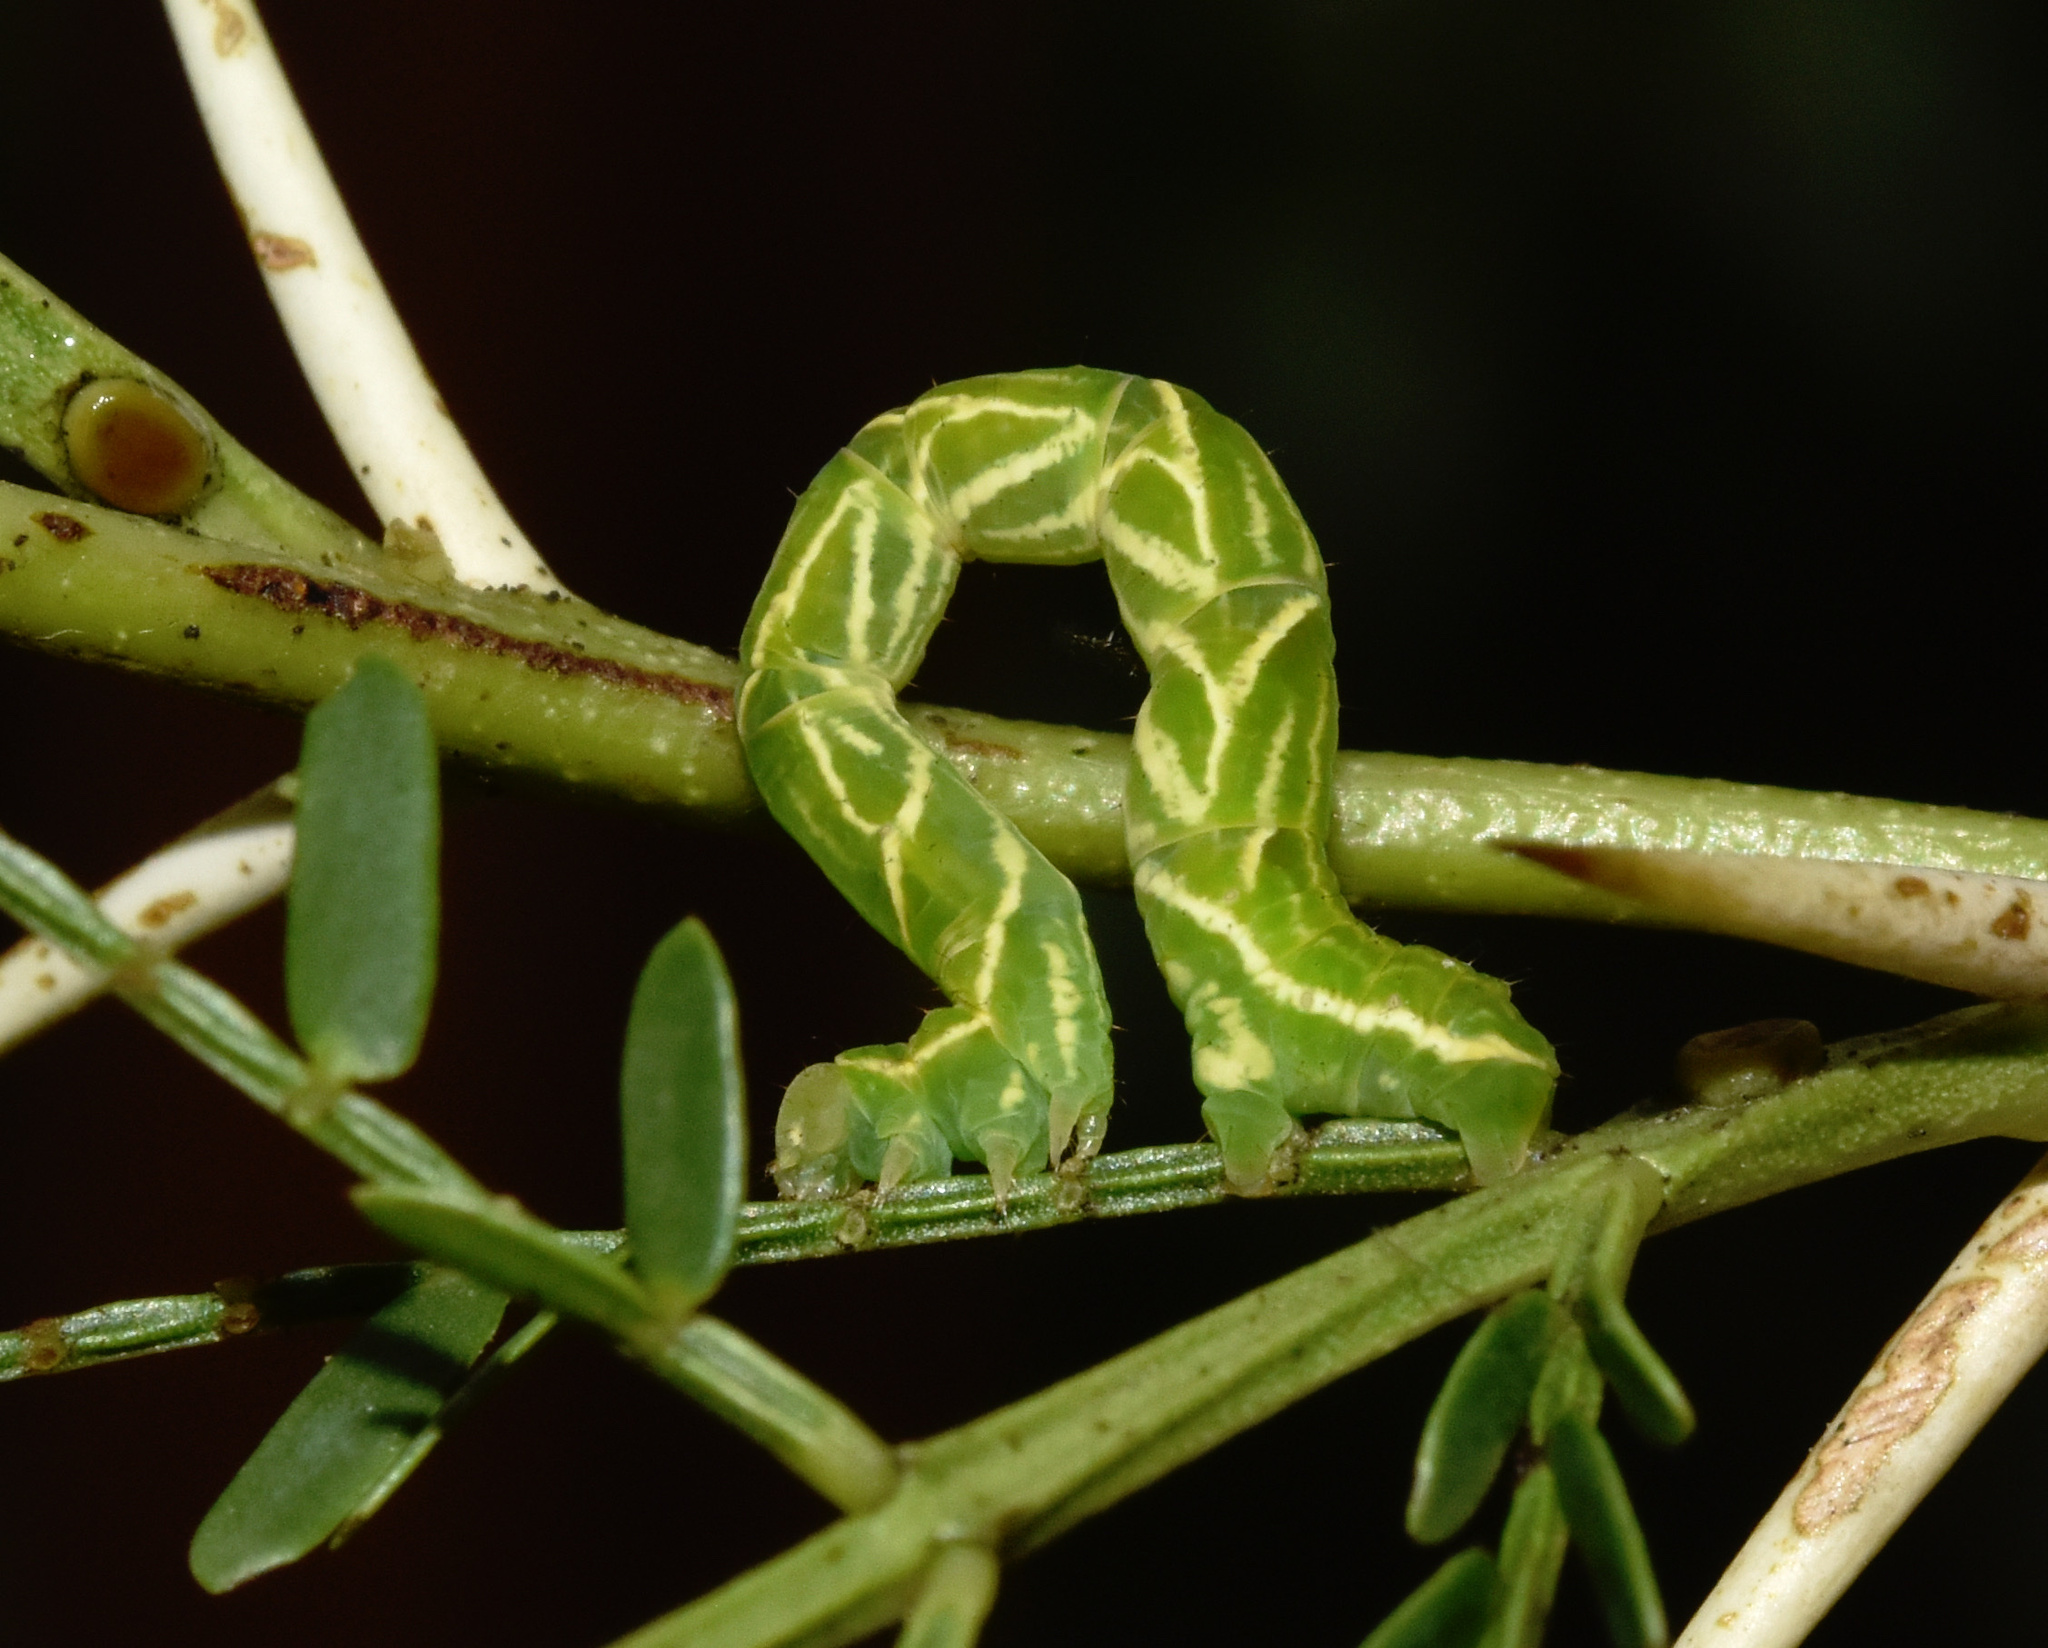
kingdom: Animalia
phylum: Arthropoda
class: Insecta
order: Lepidoptera
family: Geometridae
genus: Traminda
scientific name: Traminda ocellata
